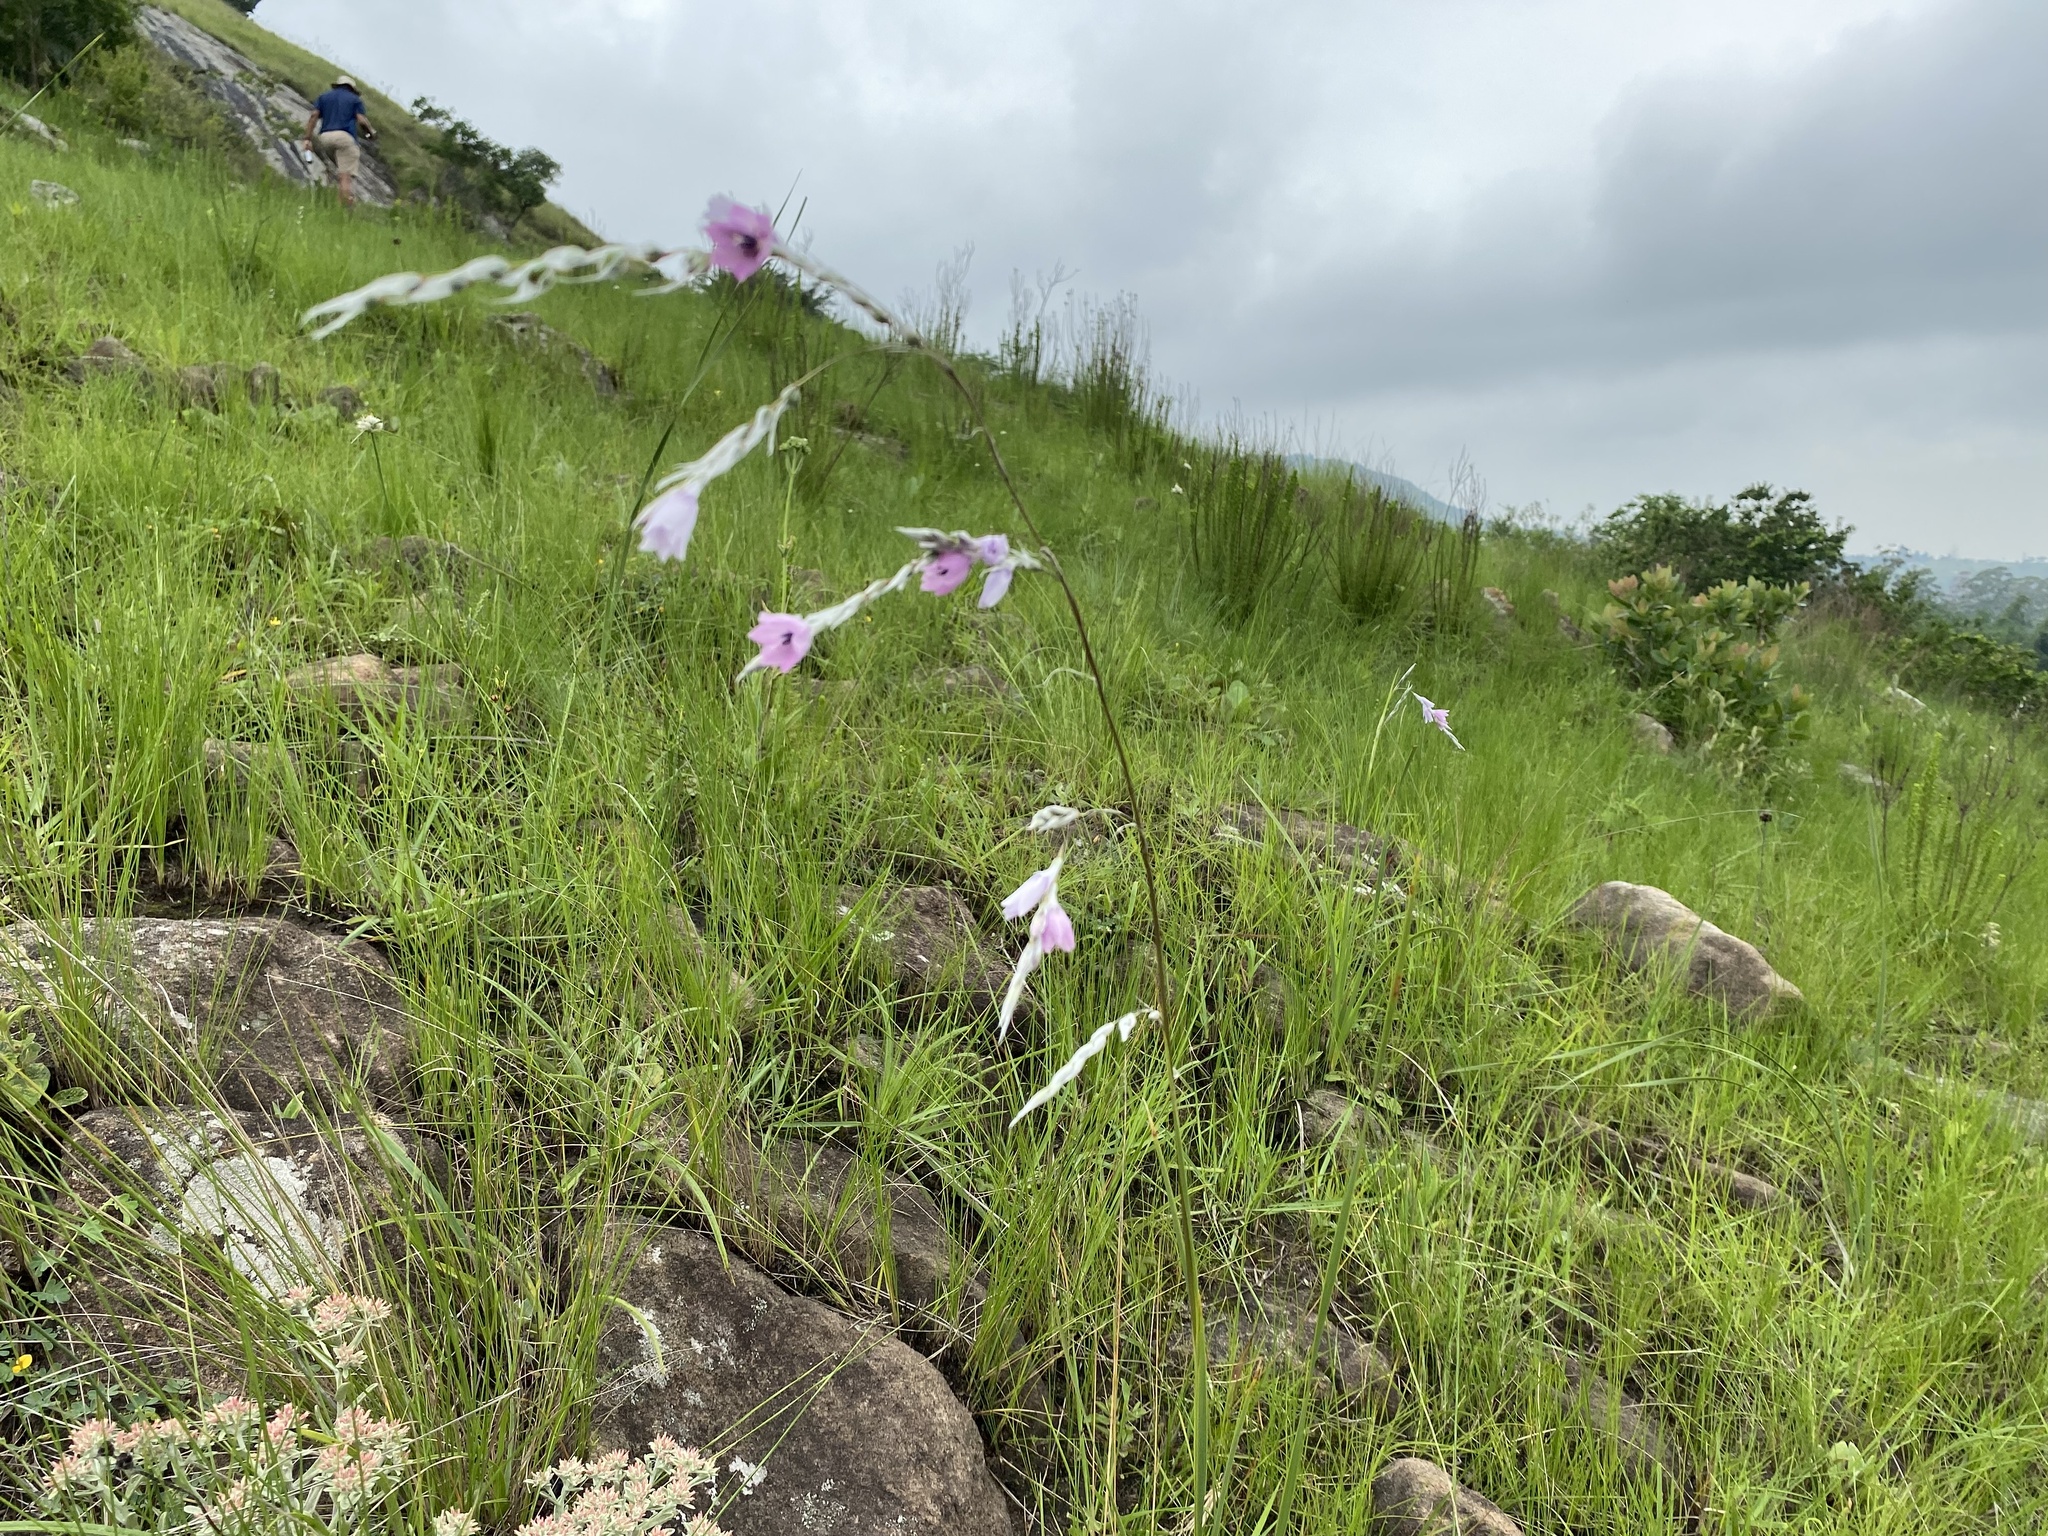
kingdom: Plantae
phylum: Tracheophyta
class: Liliopsida
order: Asparagales
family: Iridaceae
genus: Dierama
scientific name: Dierama igneum
